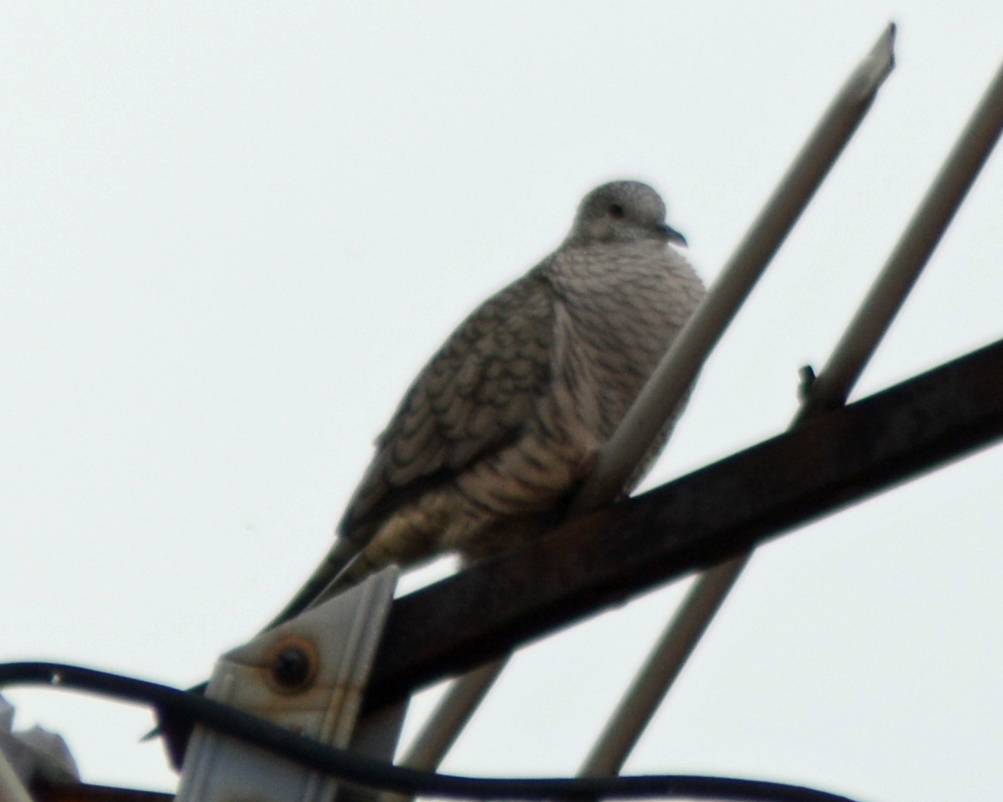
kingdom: Animalia
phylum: Chordata
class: Aves
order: Columbiformes
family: Columbidae
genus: Columbina
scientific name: Columbina inca
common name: Inca dove
